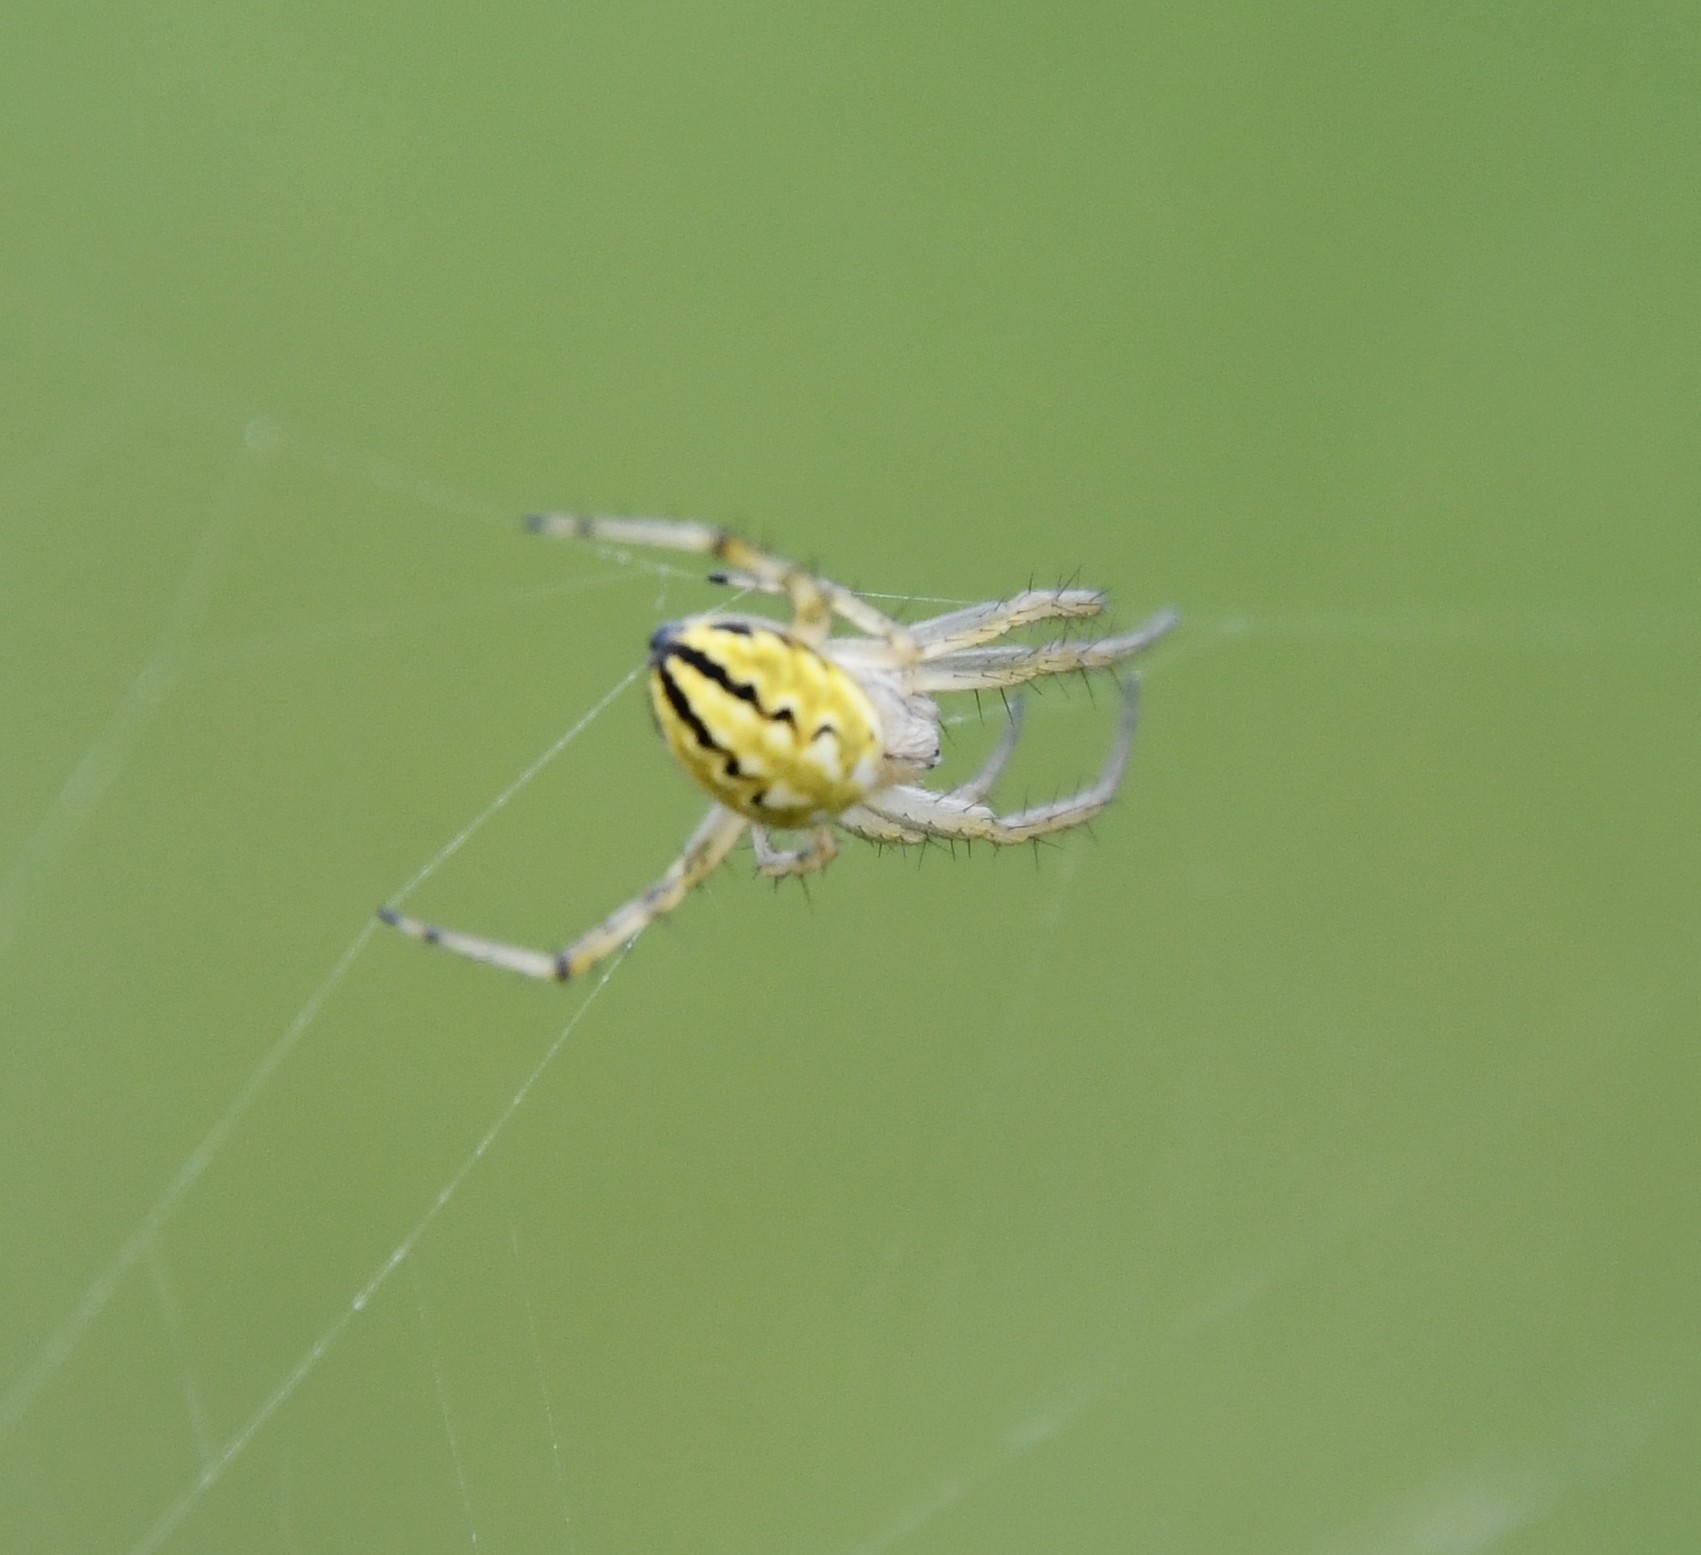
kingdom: Animalia
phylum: Arthropoda
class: Arachnida
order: Araneae
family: Araneidae
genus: Neoscona
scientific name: Neoscona adianta
